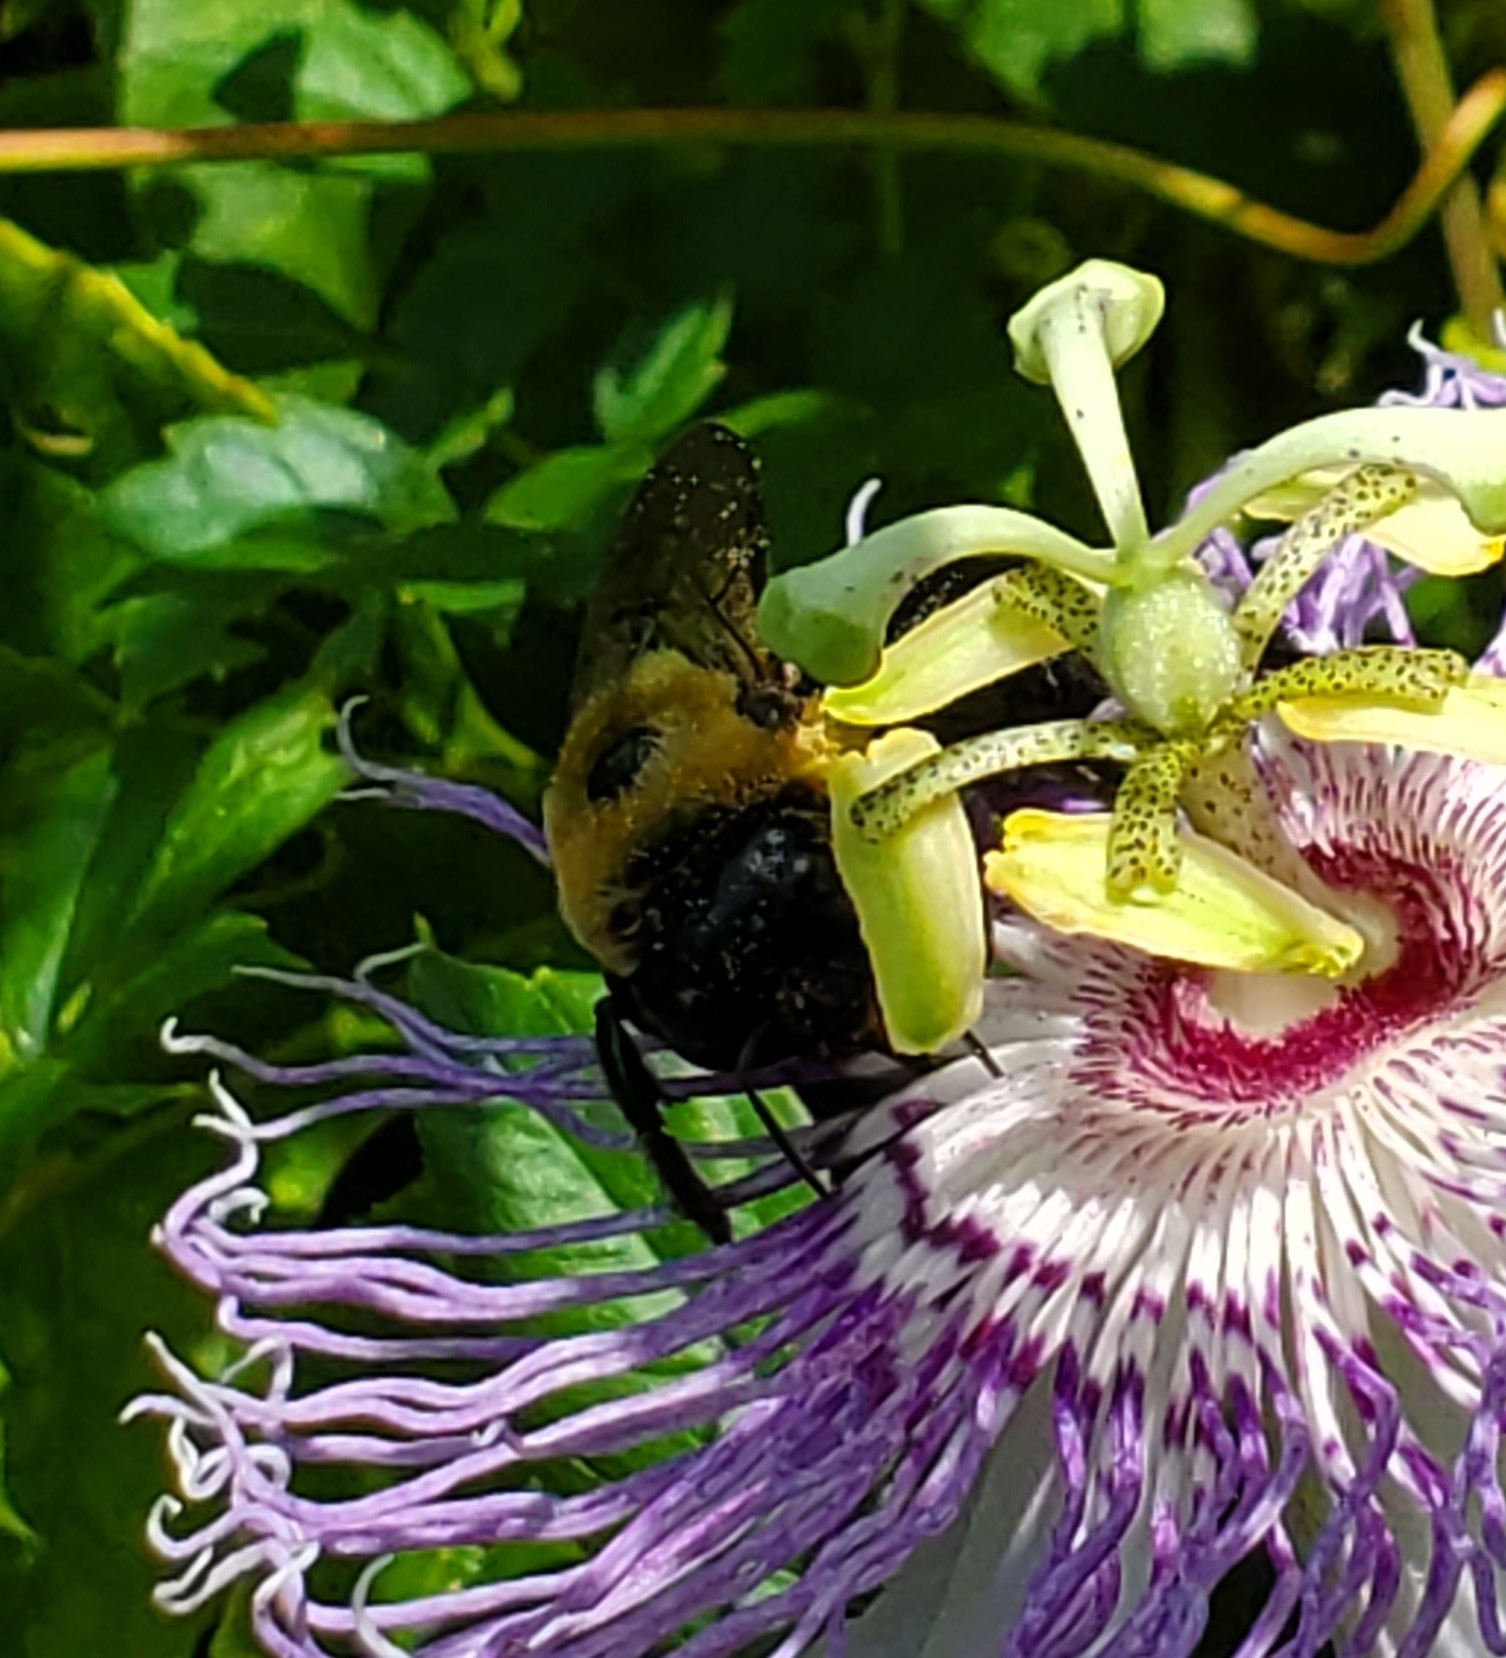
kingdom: Animalia
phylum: Arthropoda
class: Insecta
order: Hymenoptera
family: Apidae
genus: Xylocopa
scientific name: Xylocopa virginica
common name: Carpenter bee
